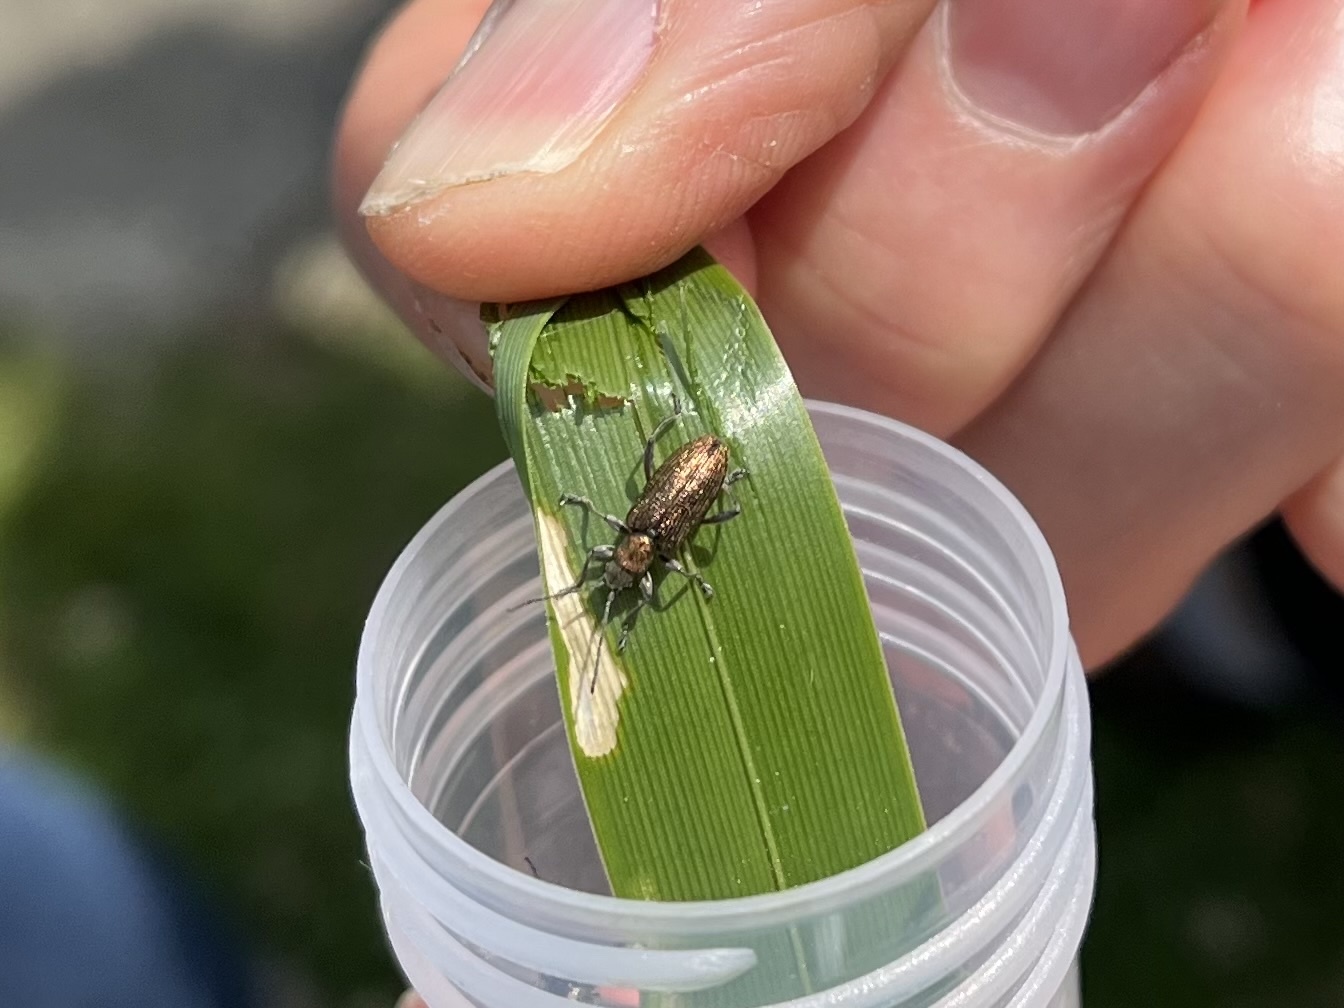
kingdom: Animalia
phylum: Arthropoda
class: Insecta
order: Coleoptera
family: Chrysomelidae
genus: Donacia
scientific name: Donacia semicuprea
